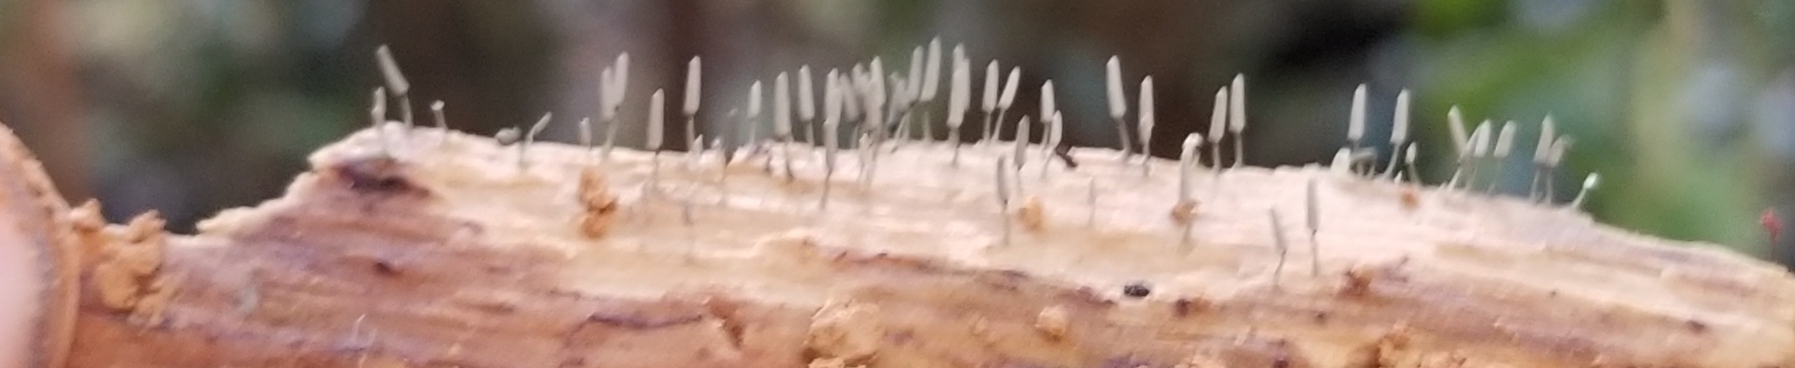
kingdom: Protozoa
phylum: Mycetozoa
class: Myxomycetes
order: Trichiales
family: Arcyriaceae
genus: Arcyria
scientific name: Arcyria cinerea
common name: White carnival candy slime mold
